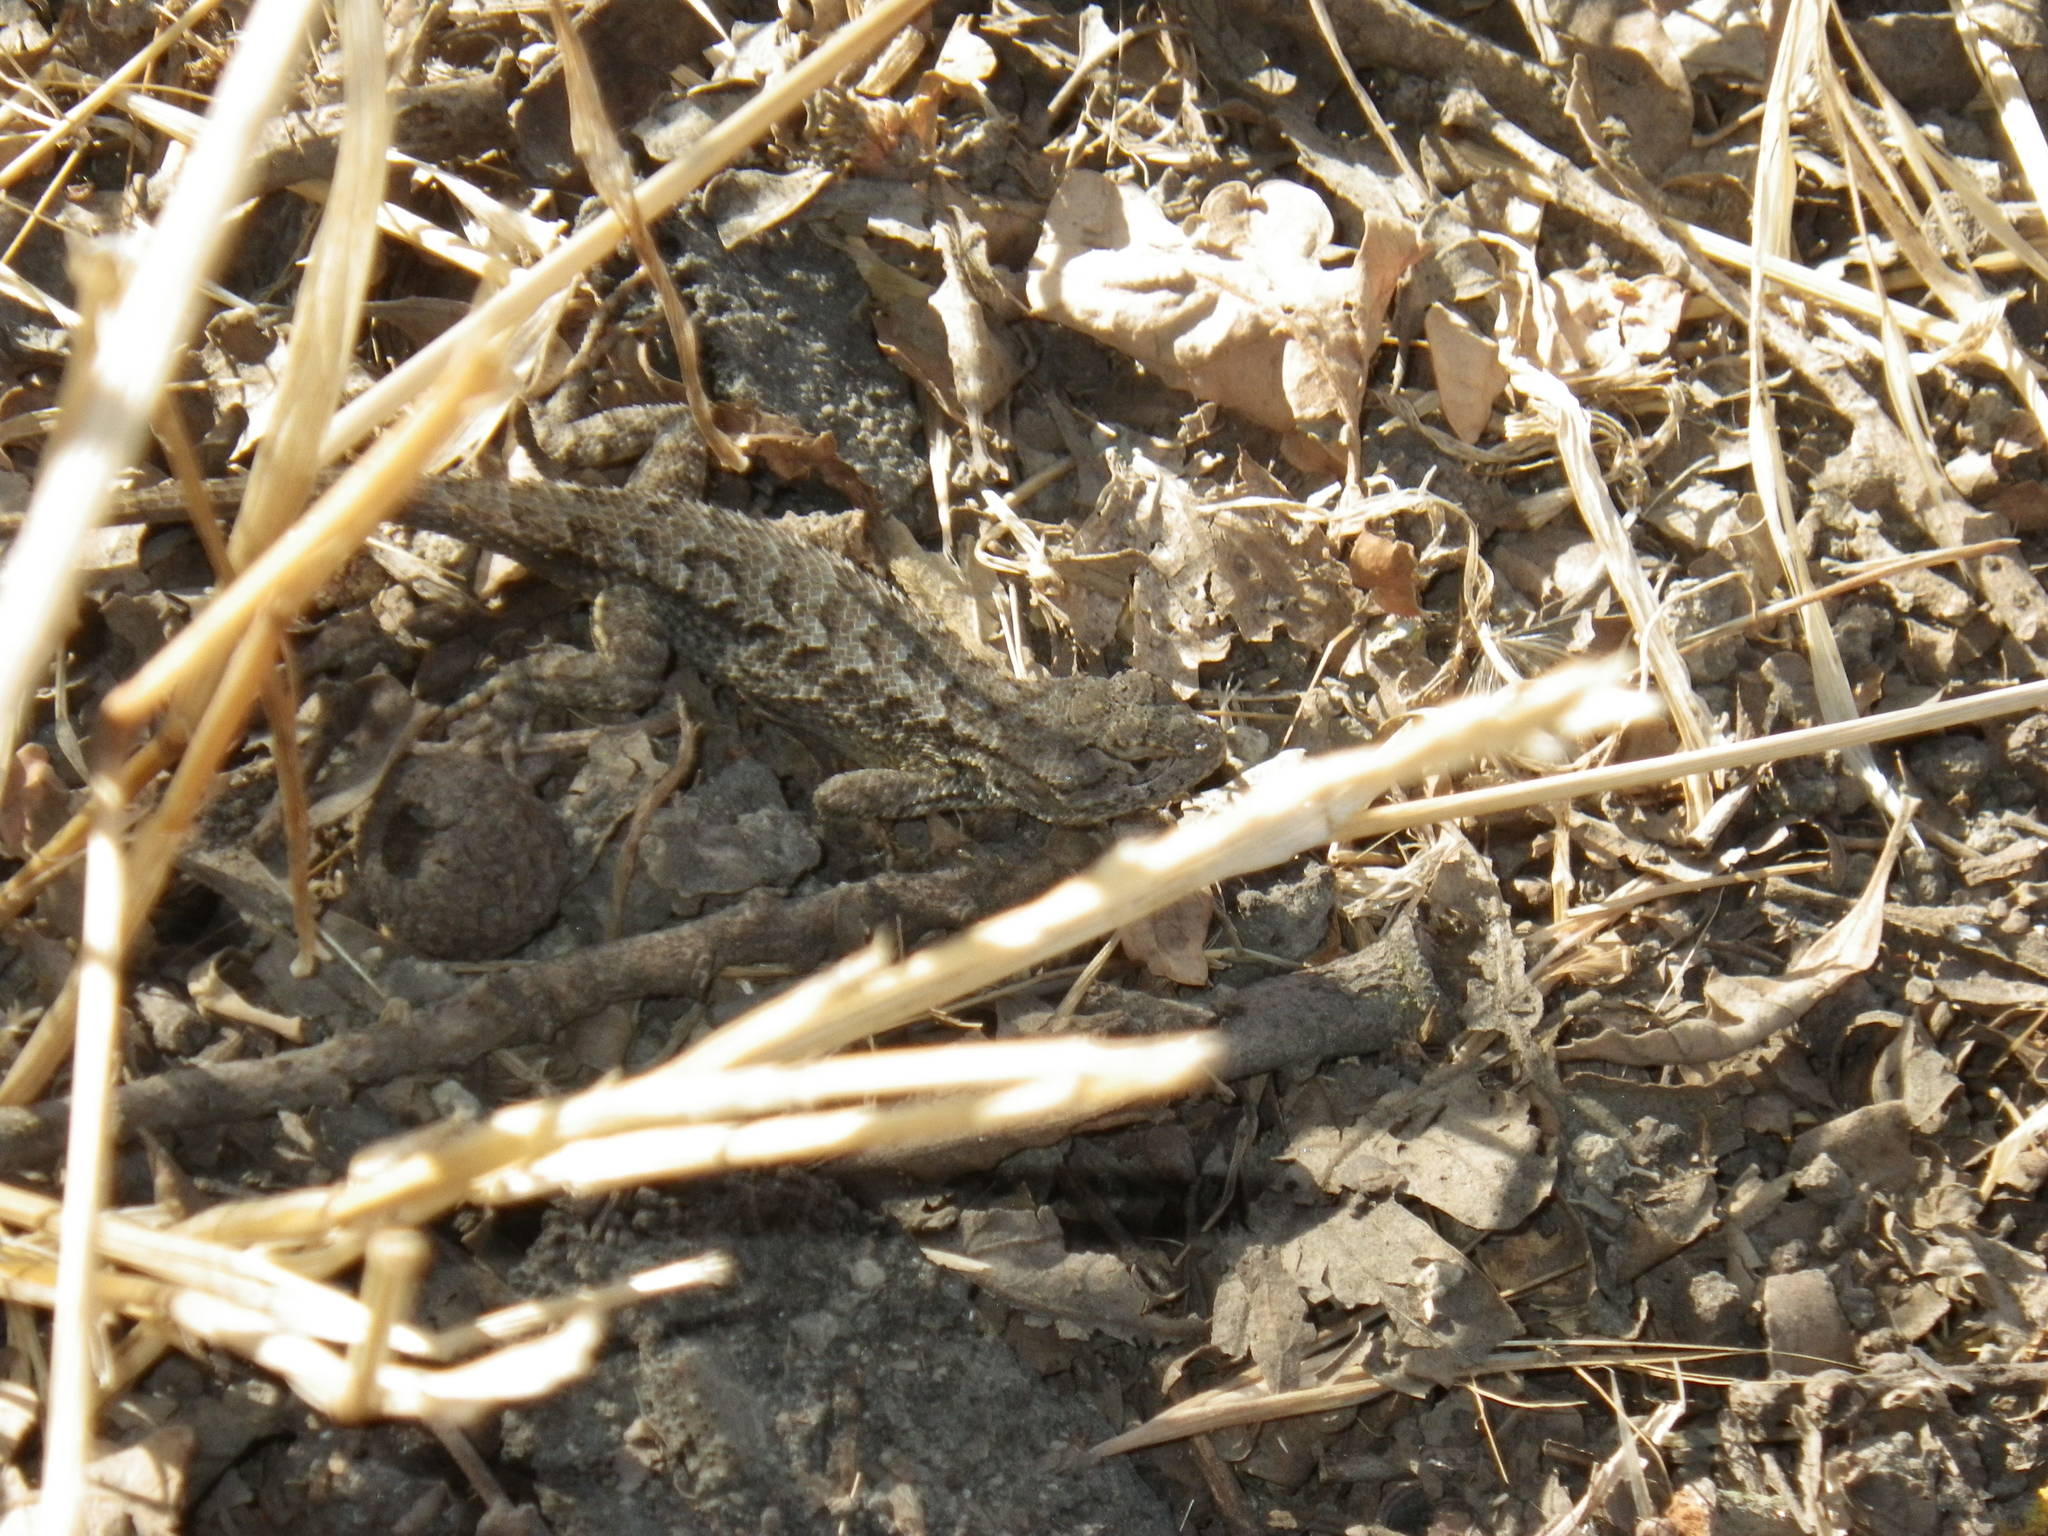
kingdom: Animalia
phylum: Chordata
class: Squamata
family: Phrynosomatidae
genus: Sceloporus
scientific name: Sceloporus occidentalis
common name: Western fence lizard
